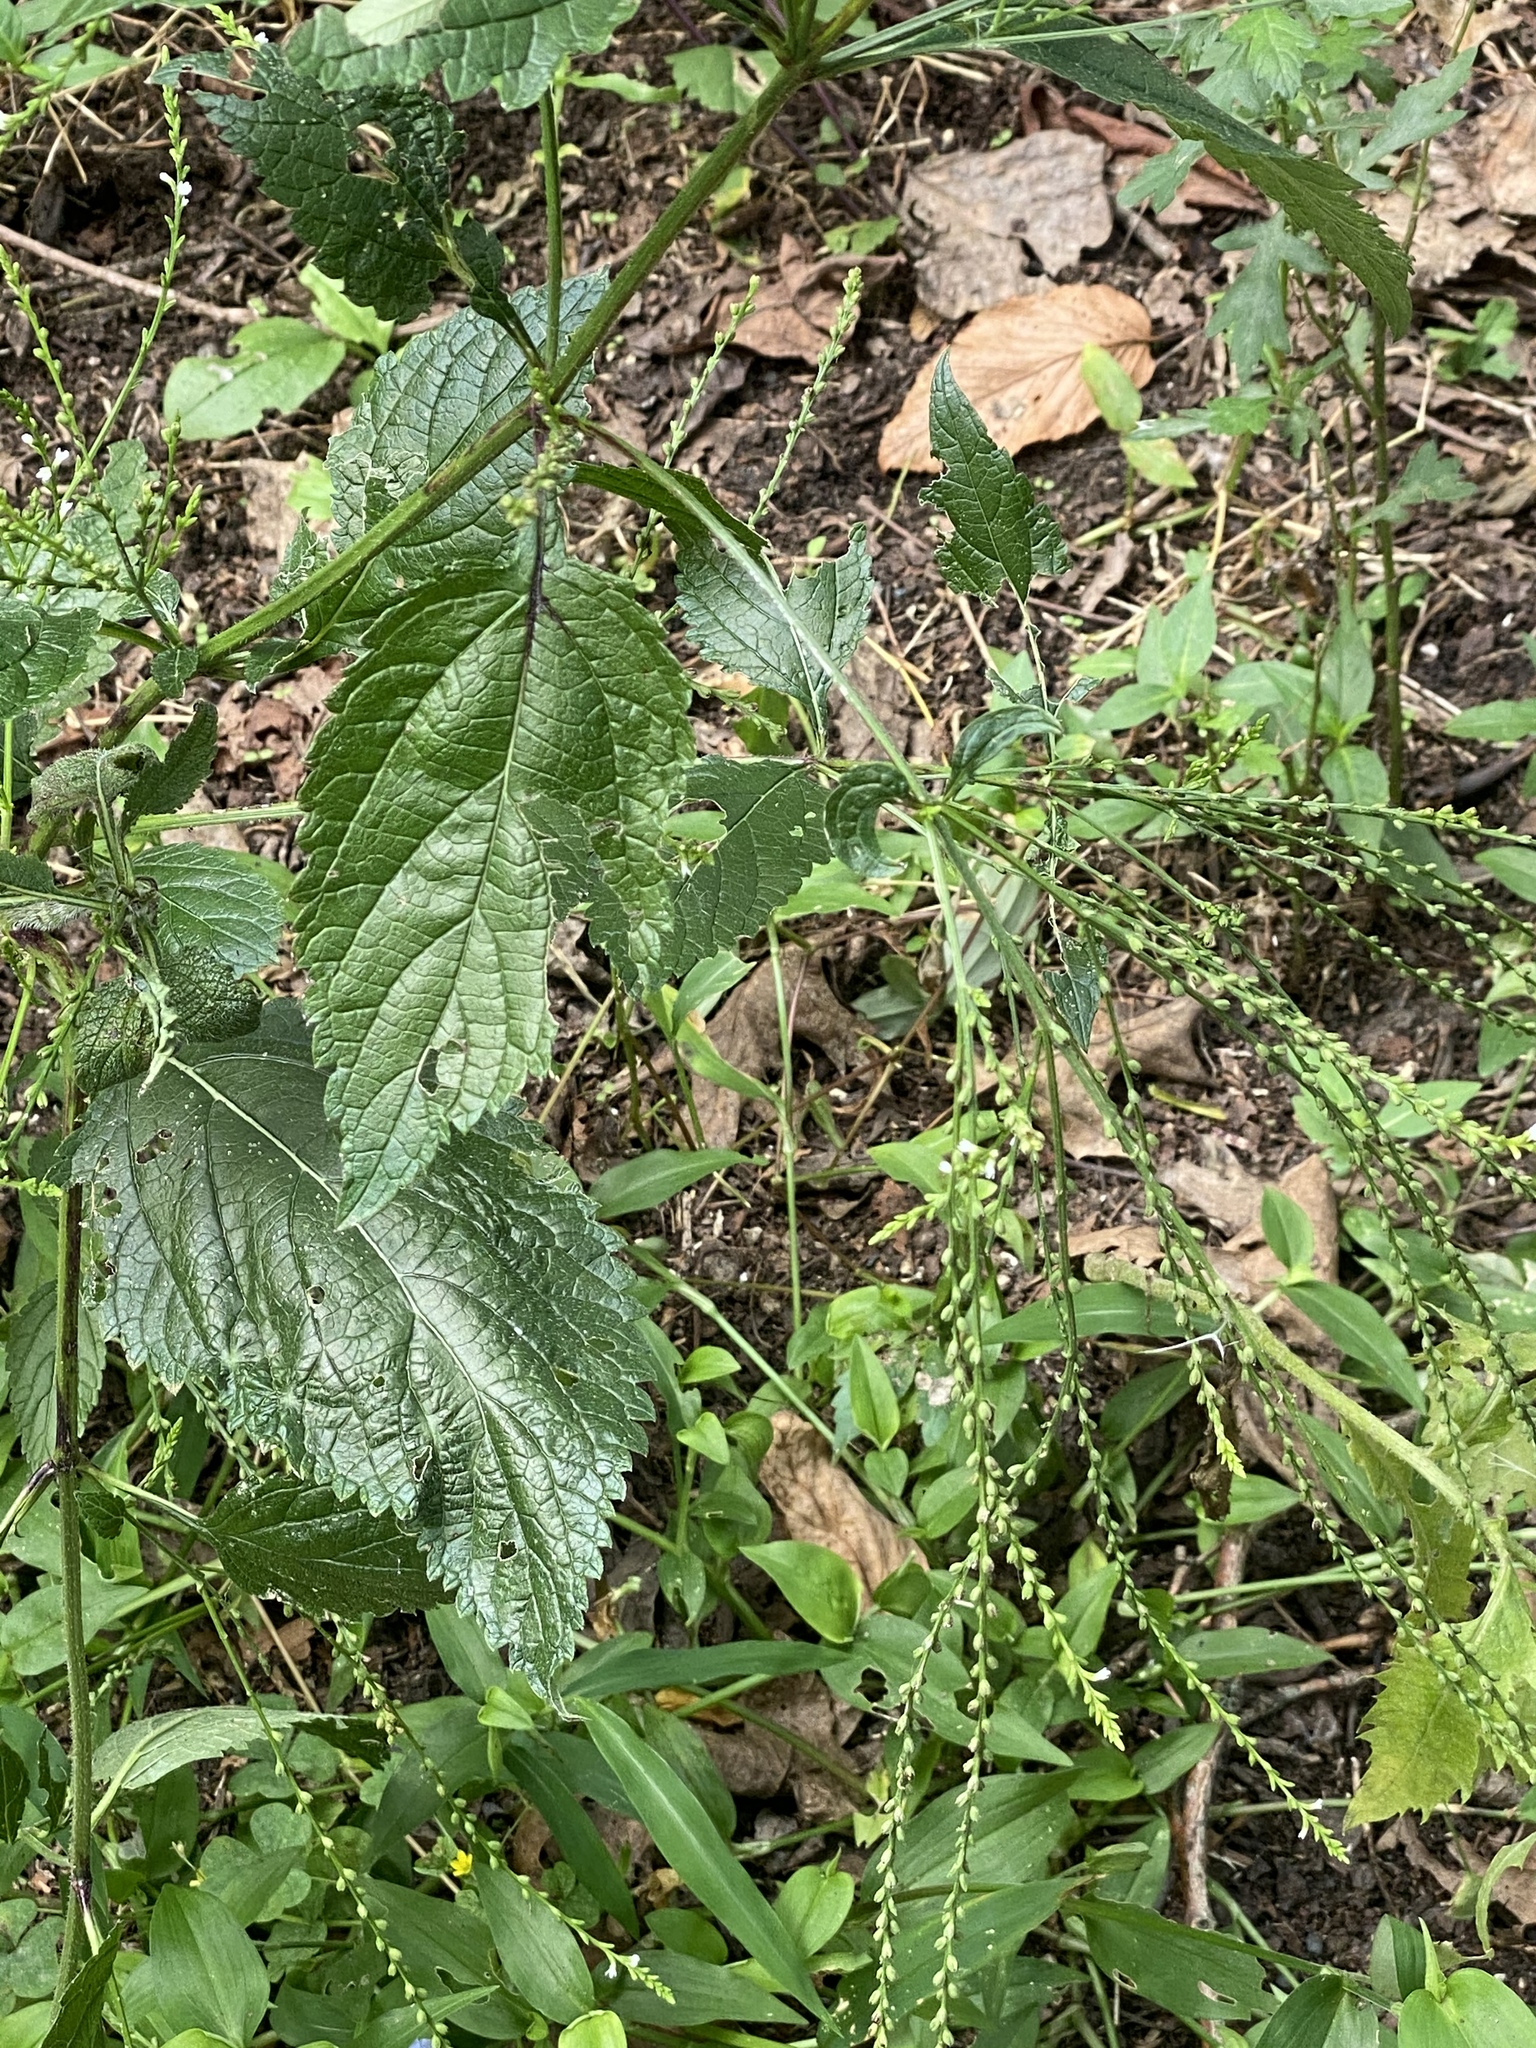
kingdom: Plantae
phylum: Tracheophyta
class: Magnoliopsida
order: Lamiales
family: Verbenaceae
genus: Verbena
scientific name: Verbena urticifolia
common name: Nettle-leaved vervain
